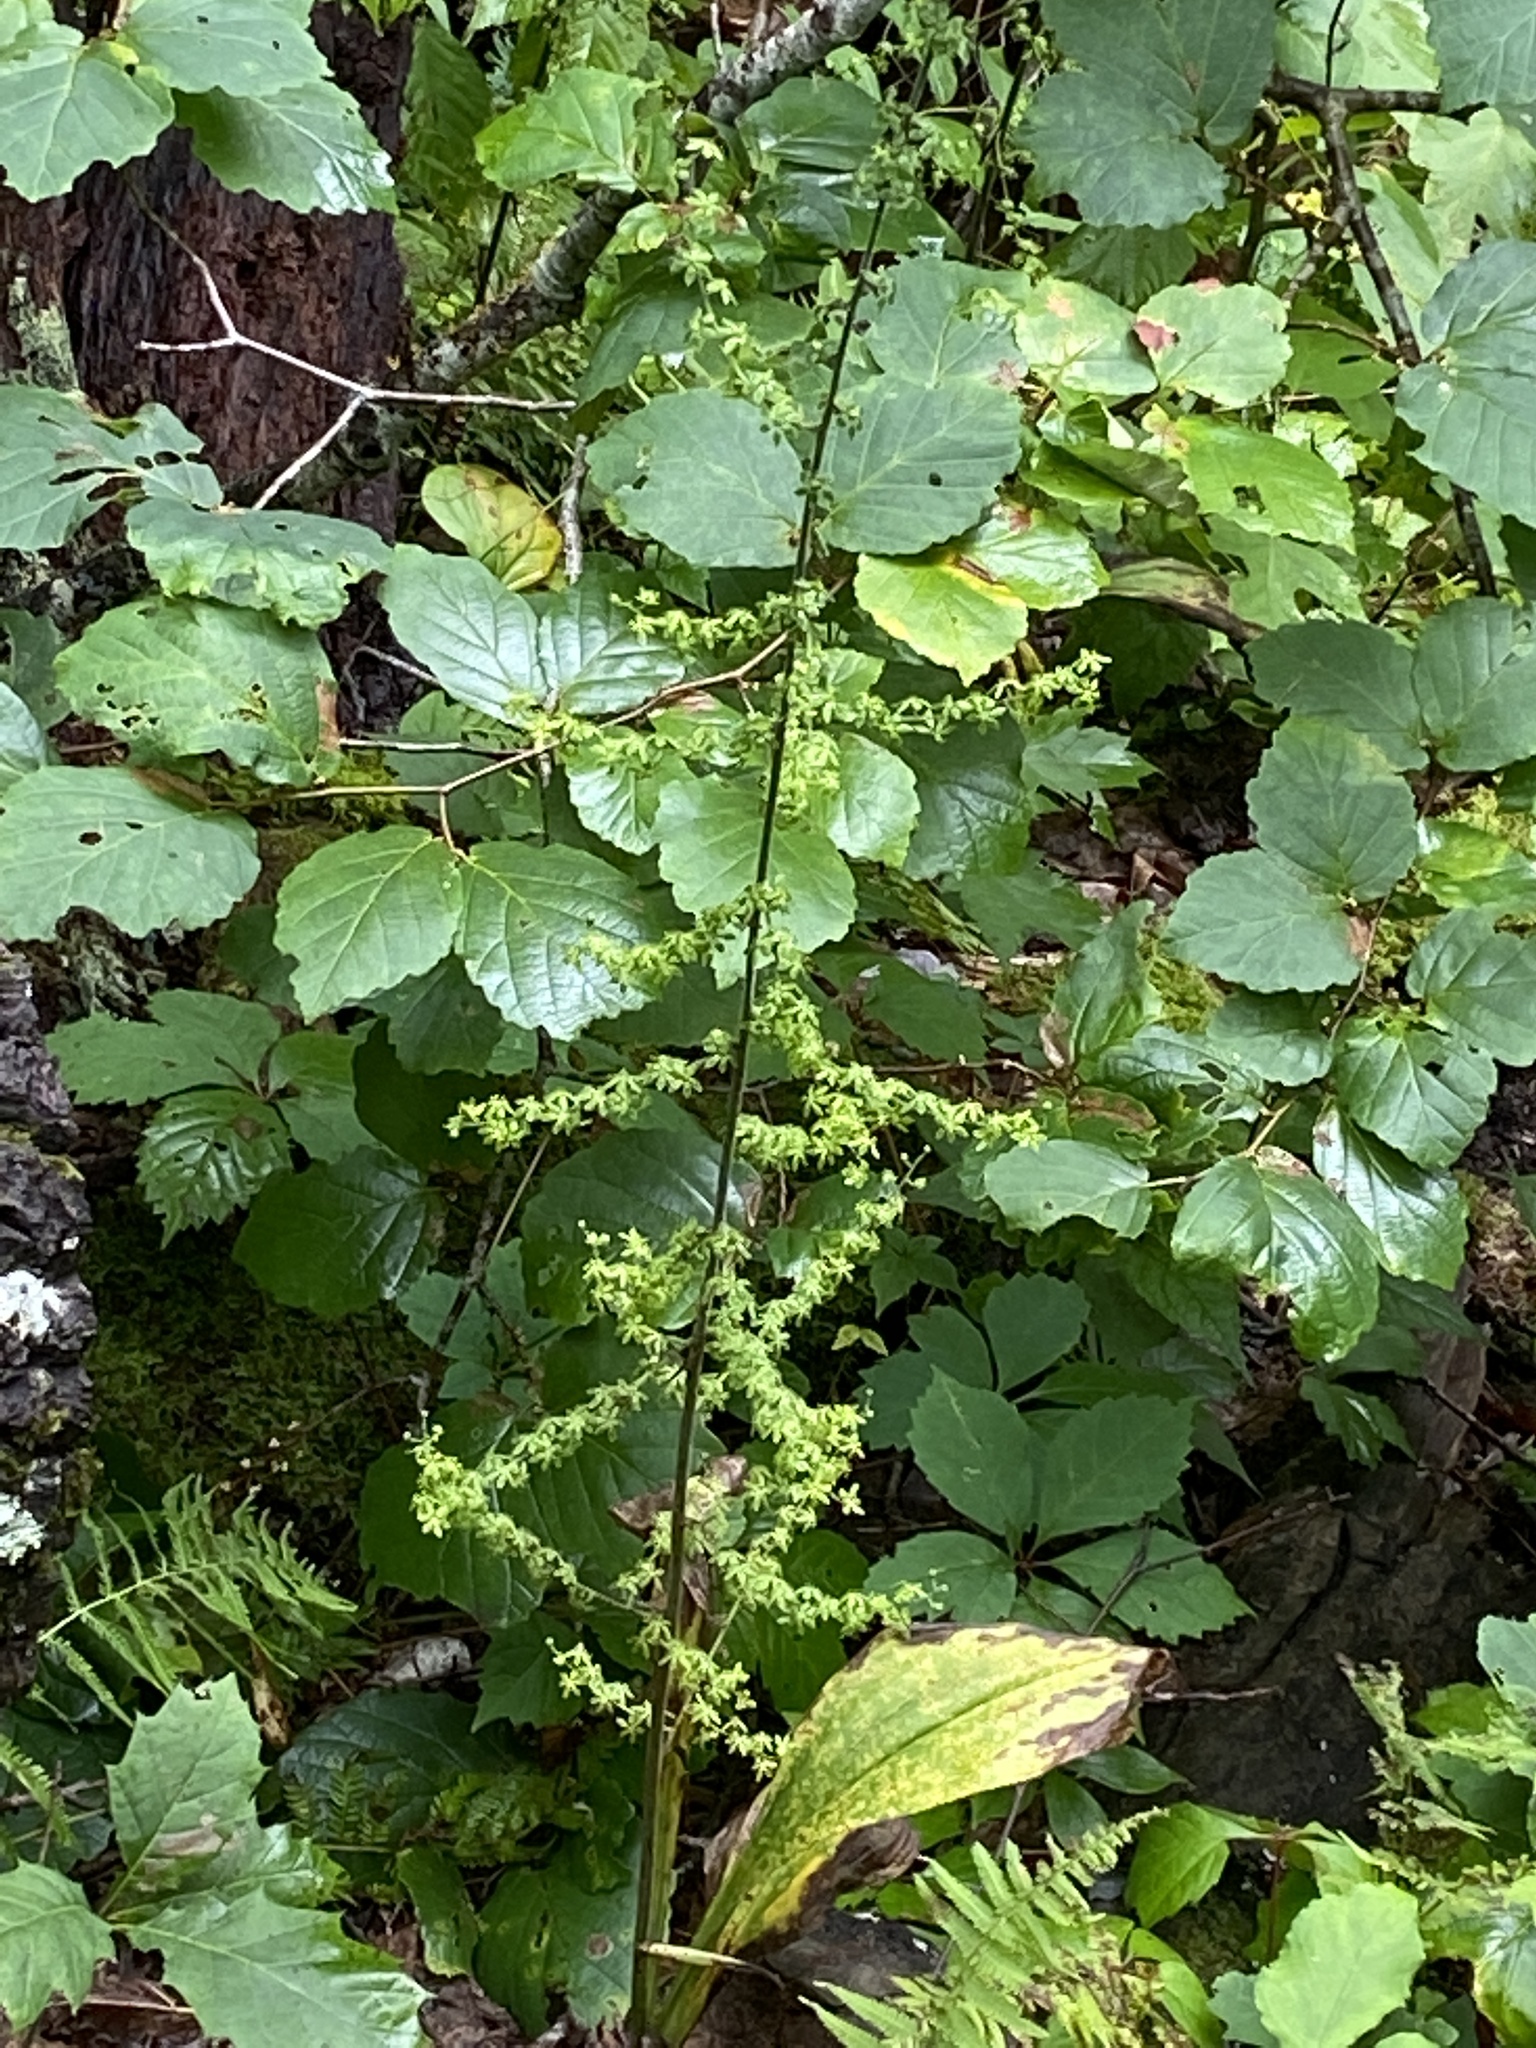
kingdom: Plantae
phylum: Tracheophyta
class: Liliopsida
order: Liliales
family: Melanthiaceae
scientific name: Melanthiaceae
